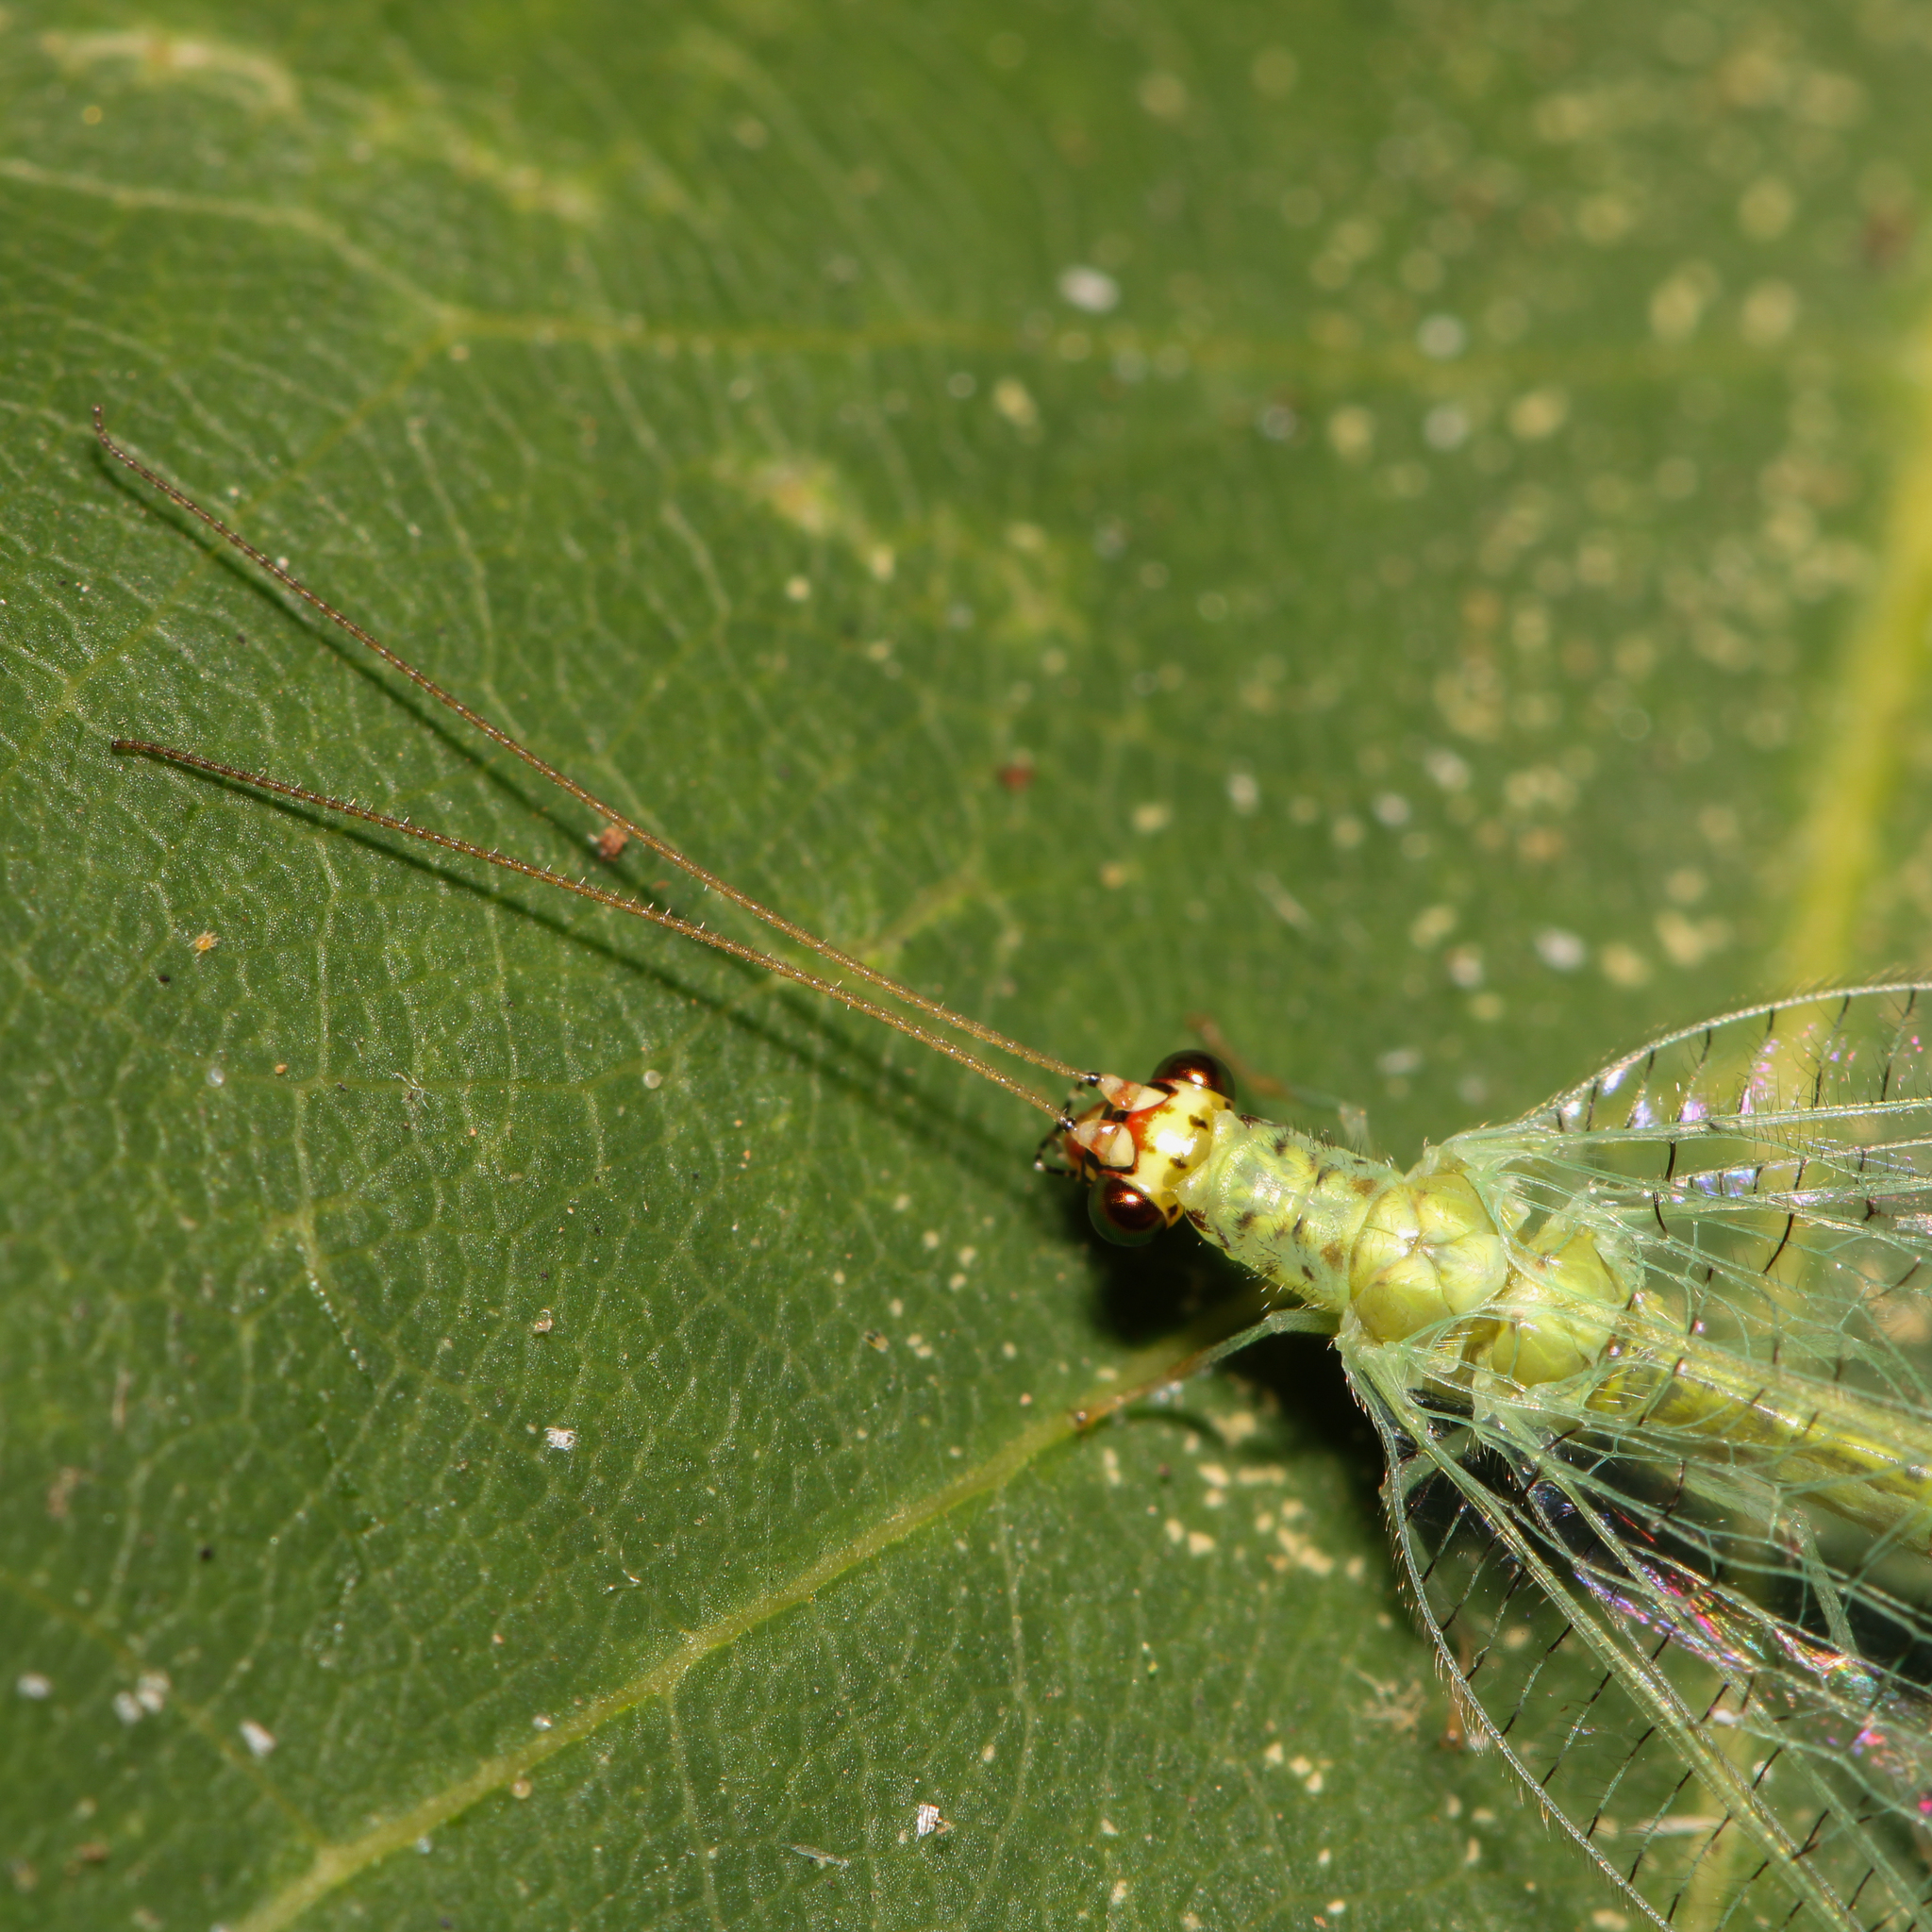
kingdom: Animalia
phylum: Arthropoda
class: Insecta
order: Neuroptera
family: Chrysopidae
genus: Chrysopa
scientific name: Chrysopa oculata
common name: Golden-eyed lacewing
